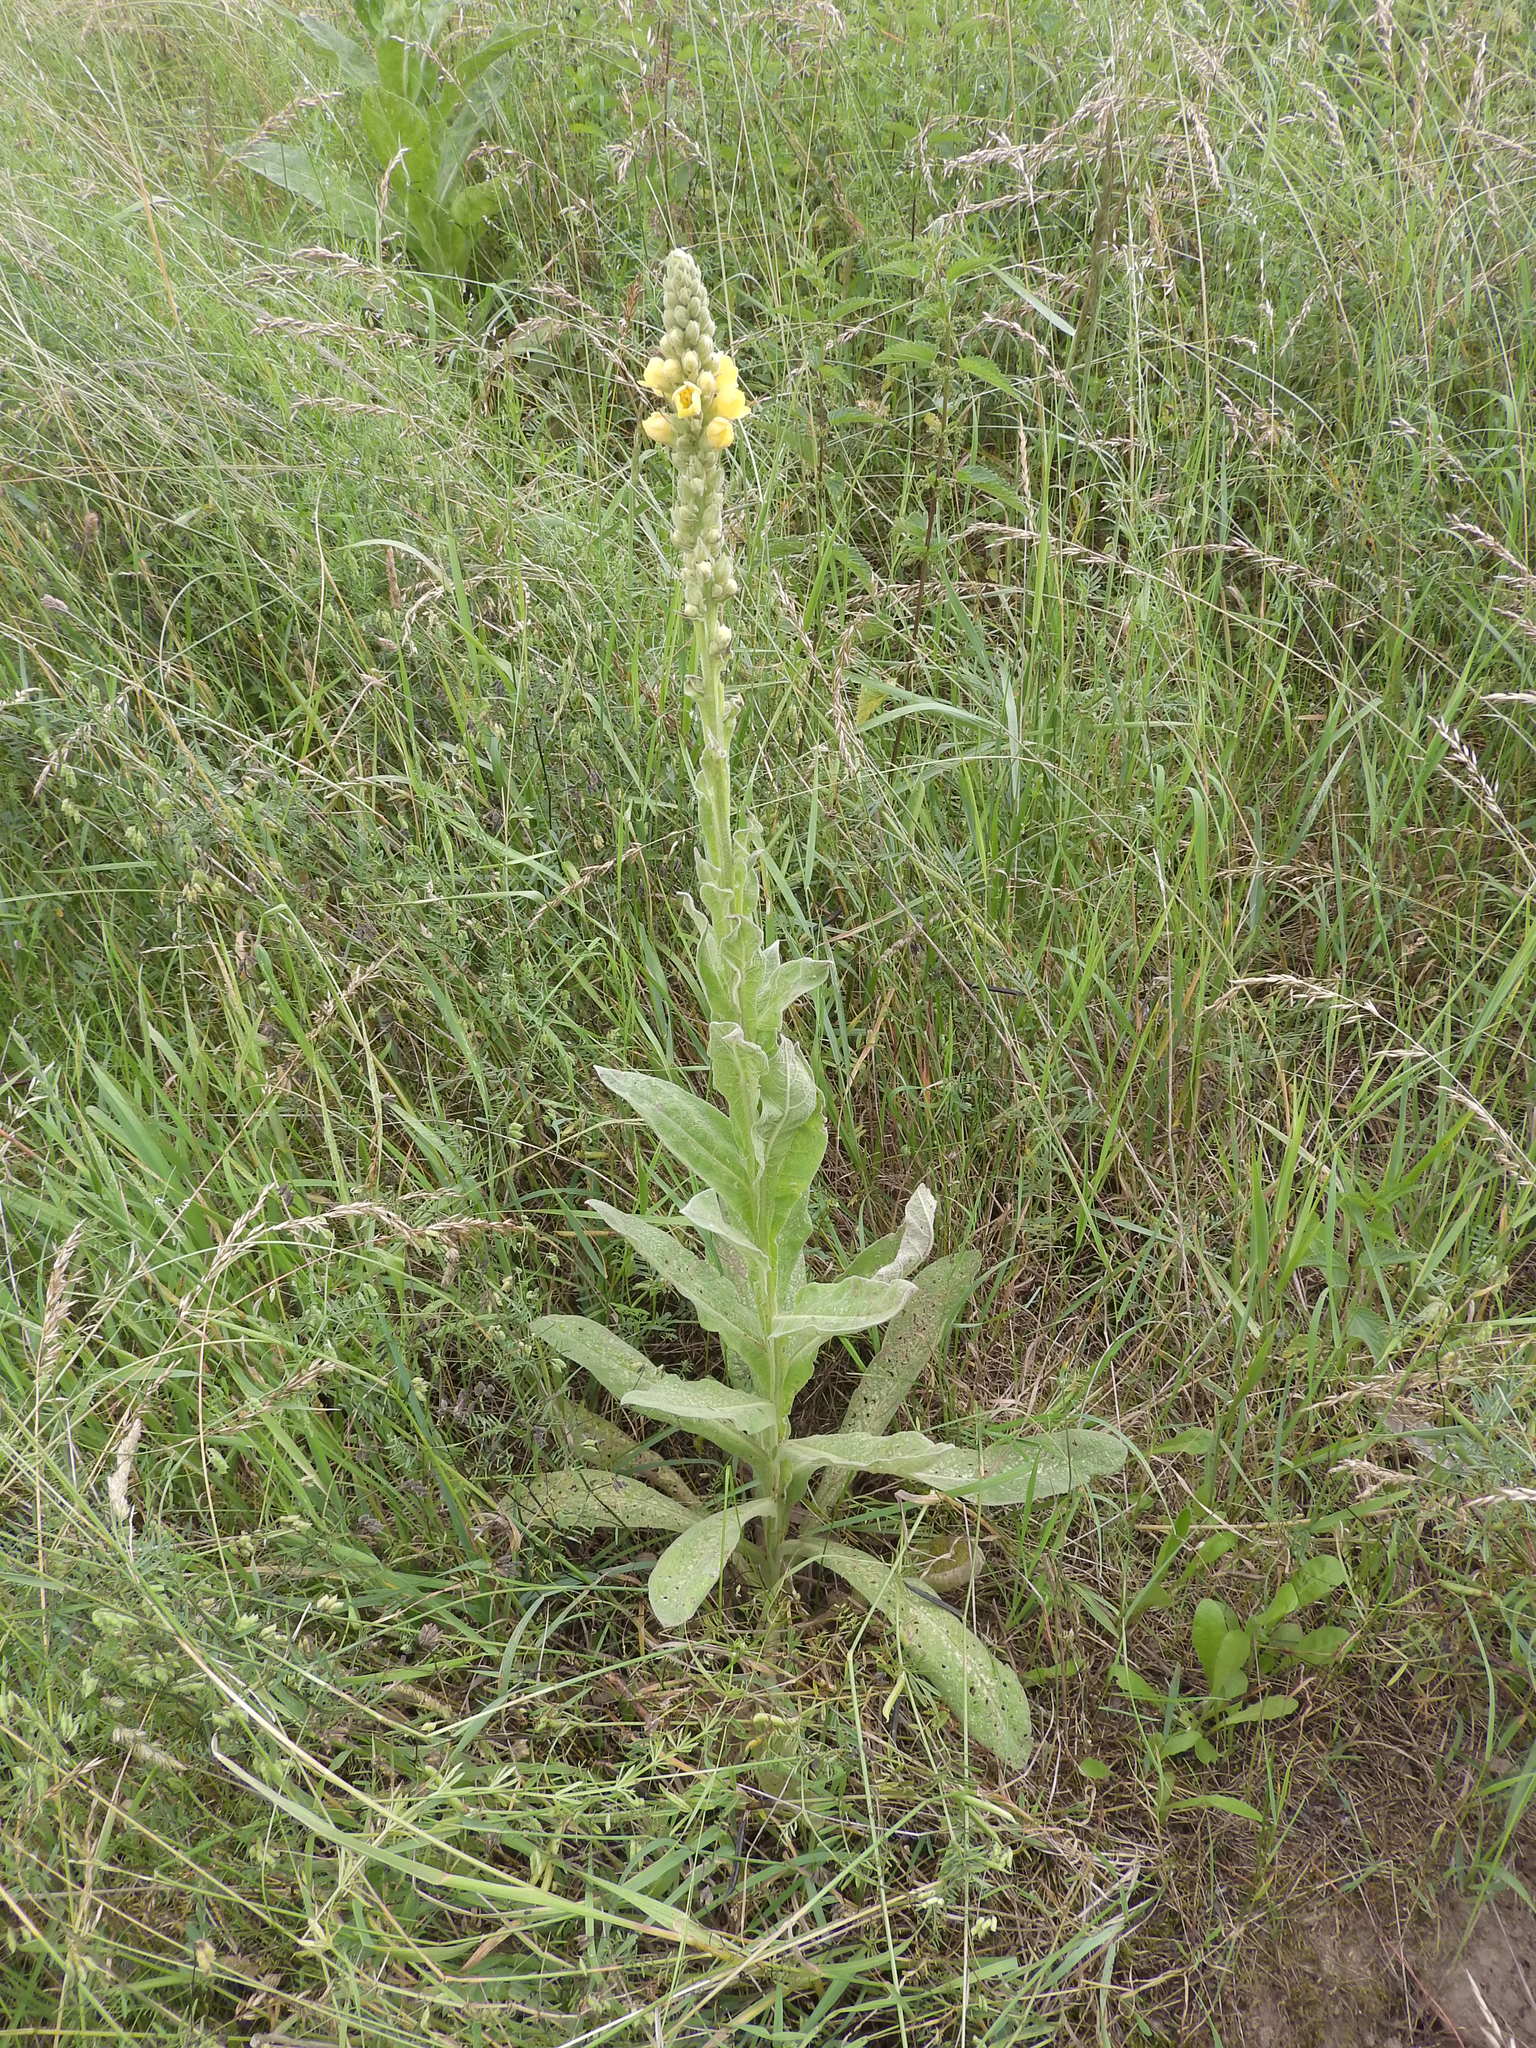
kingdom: Plantae
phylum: Tracheophyta
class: Magnoliopsida
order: Lamiales
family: Scrophulariaceae
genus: Verbascum
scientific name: Verbascum thapsus
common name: Common mullein
